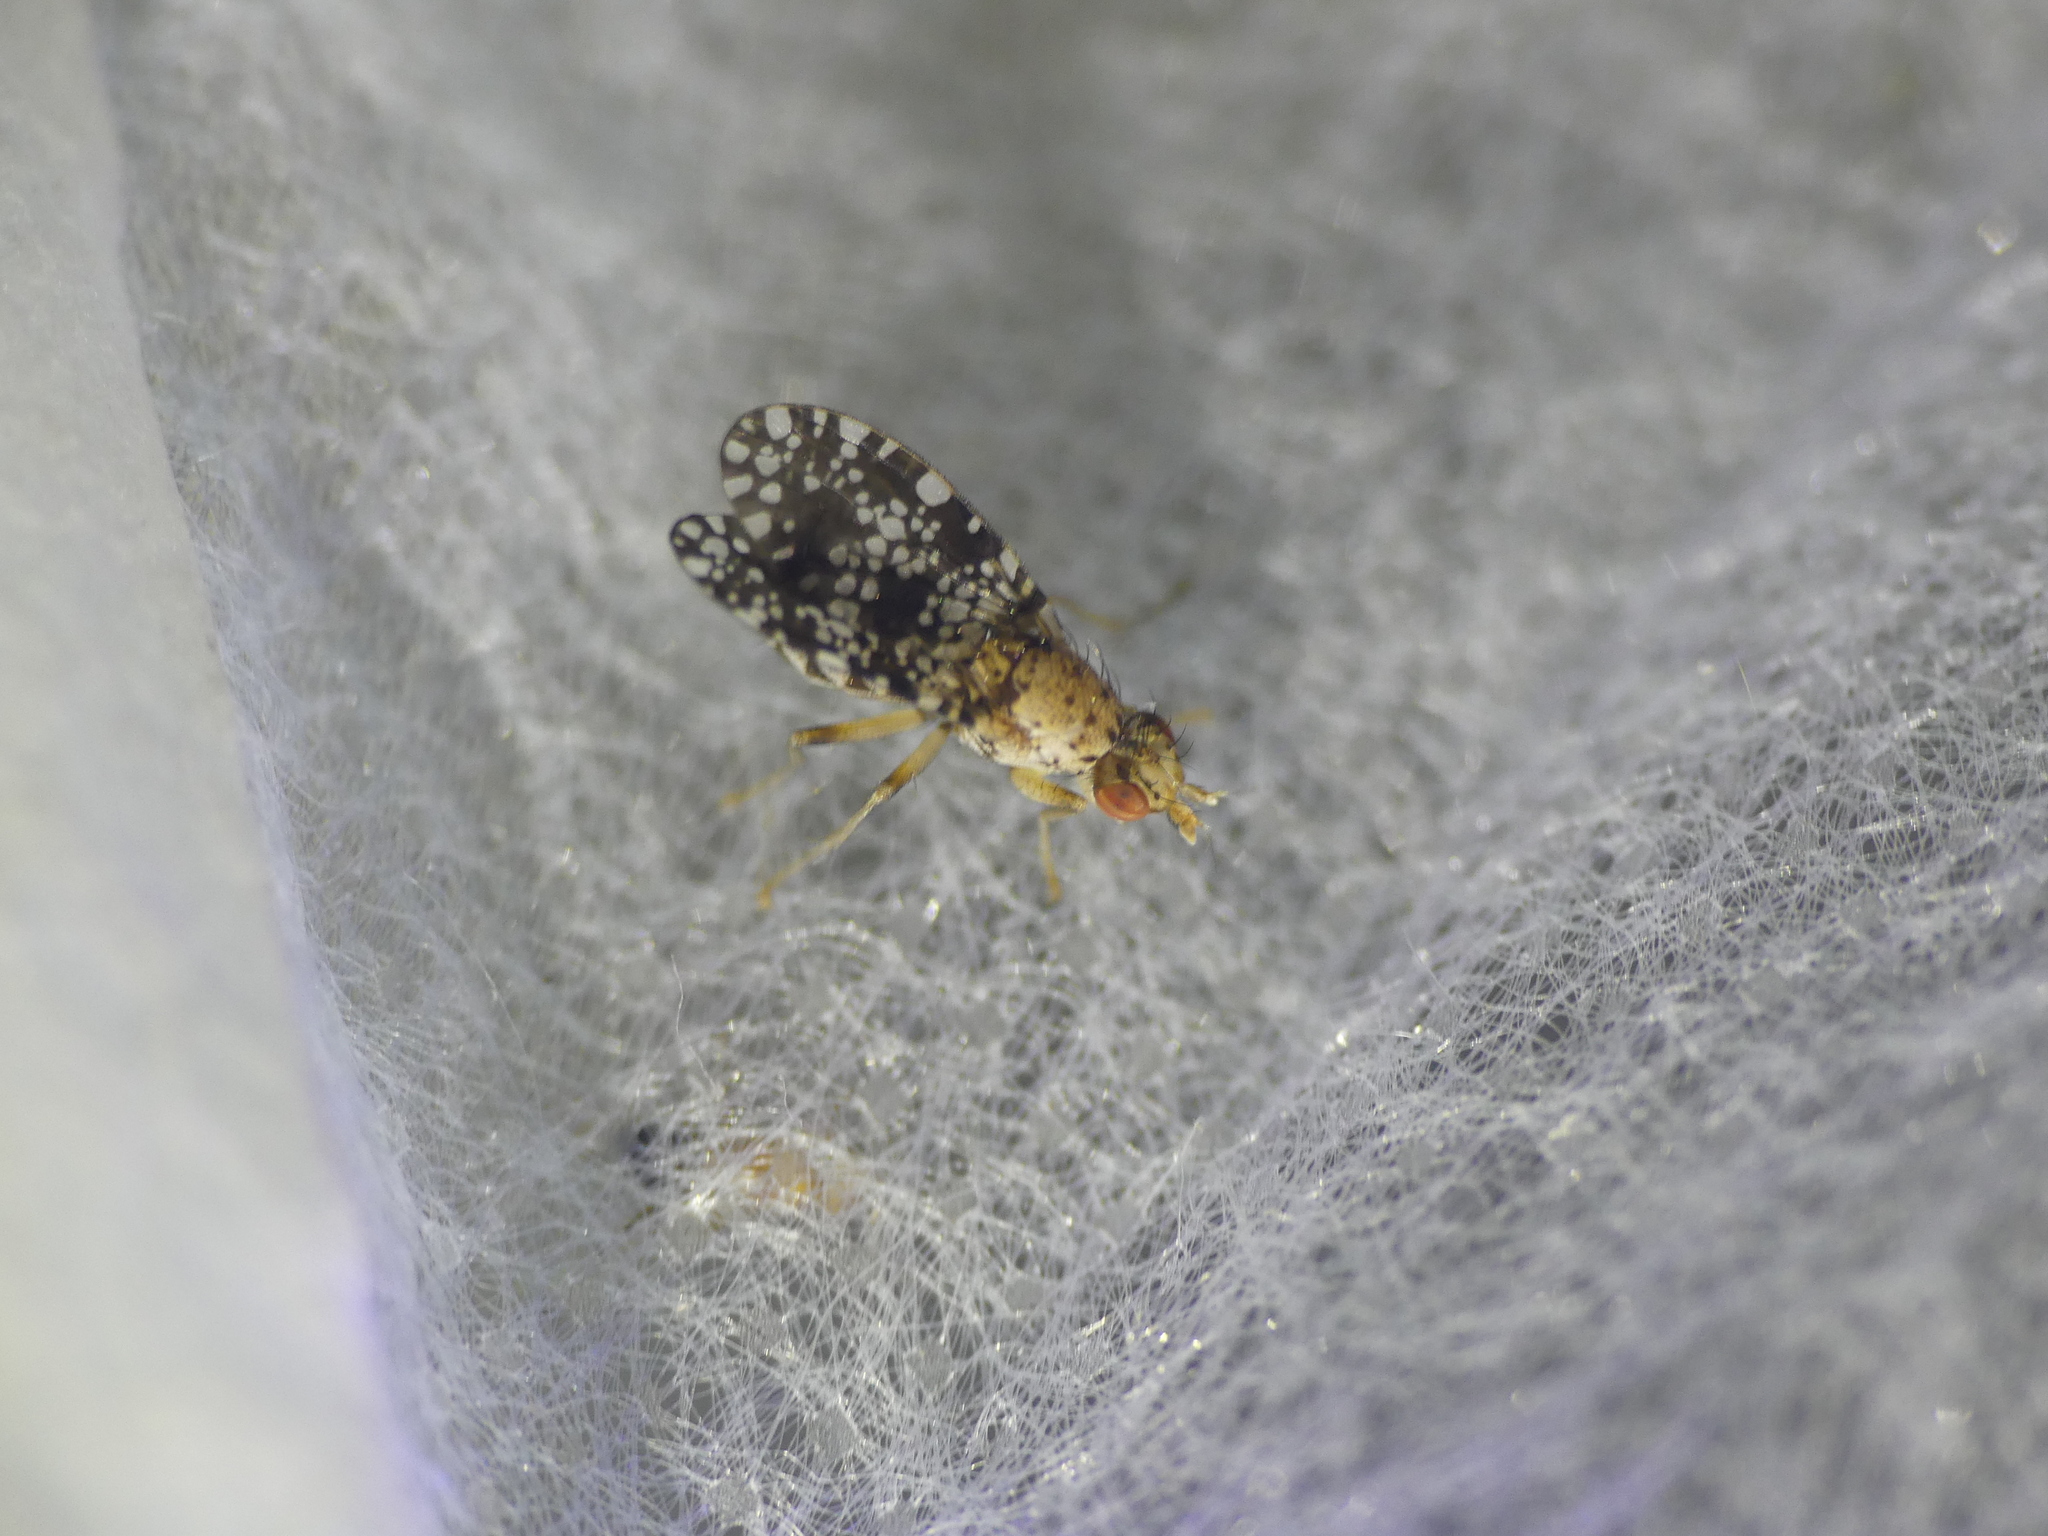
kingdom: Animalia
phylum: Arthropoda
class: Insecta
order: Diptera
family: Sciomyzidae
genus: Trypetoptera
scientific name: Trypetoptera punctulata
